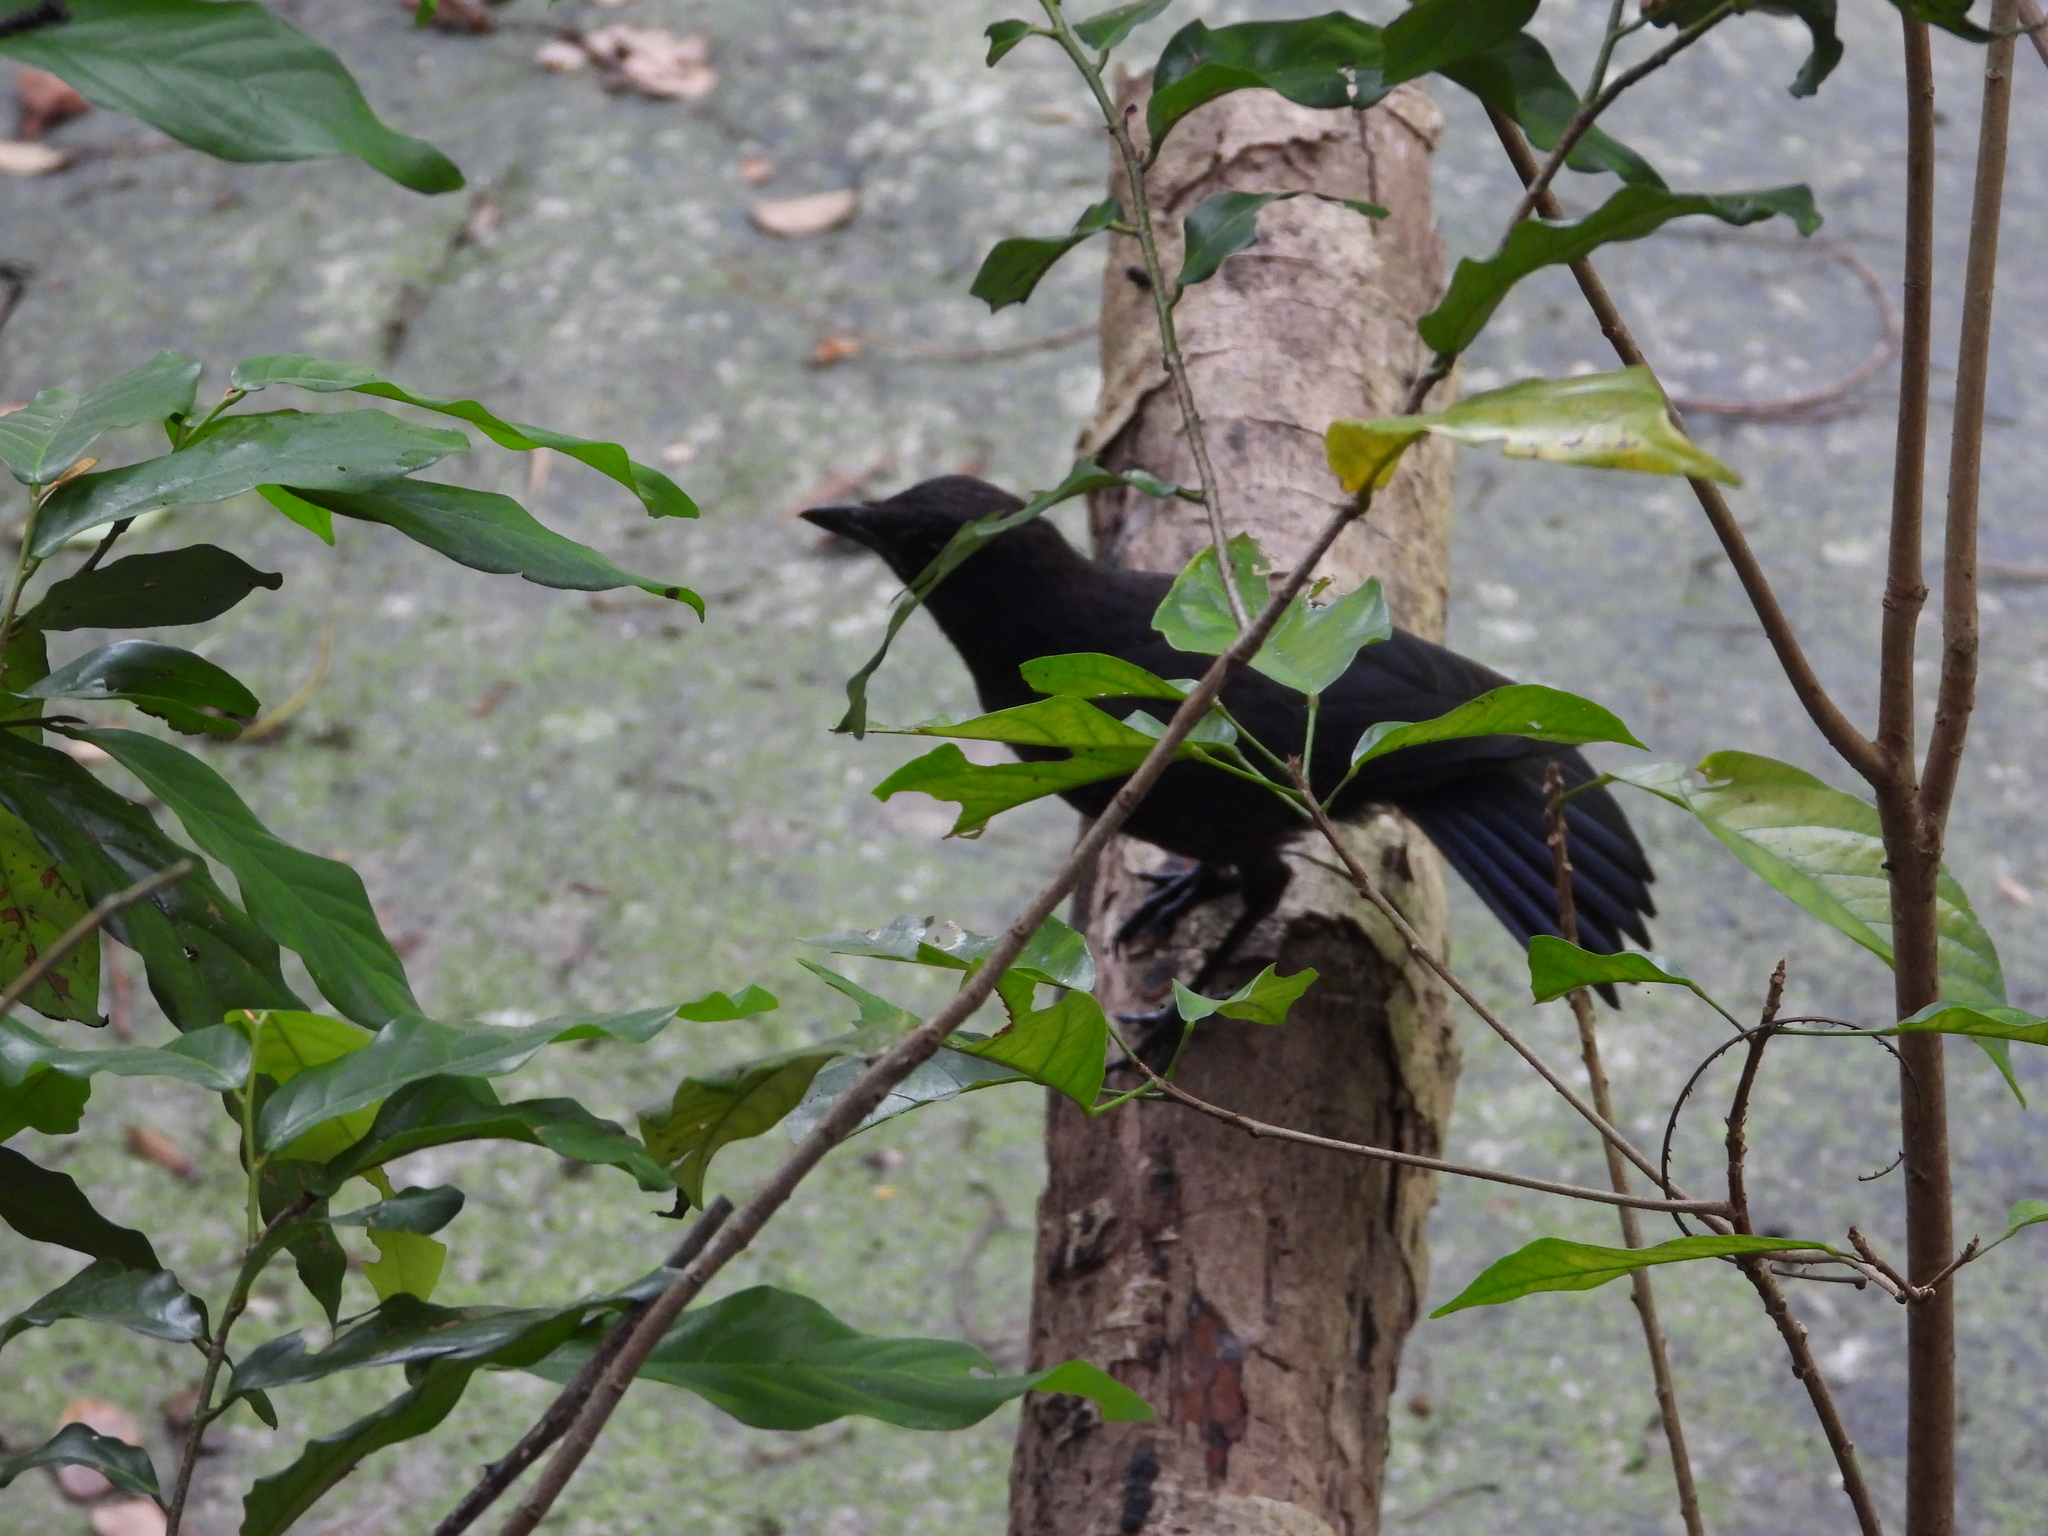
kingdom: Animalia
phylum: Chordata
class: Aves
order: Passeriformes
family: Muscicapidae
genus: Myophonus
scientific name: Myophonus caeruleus
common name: Blue whistling-thrush
